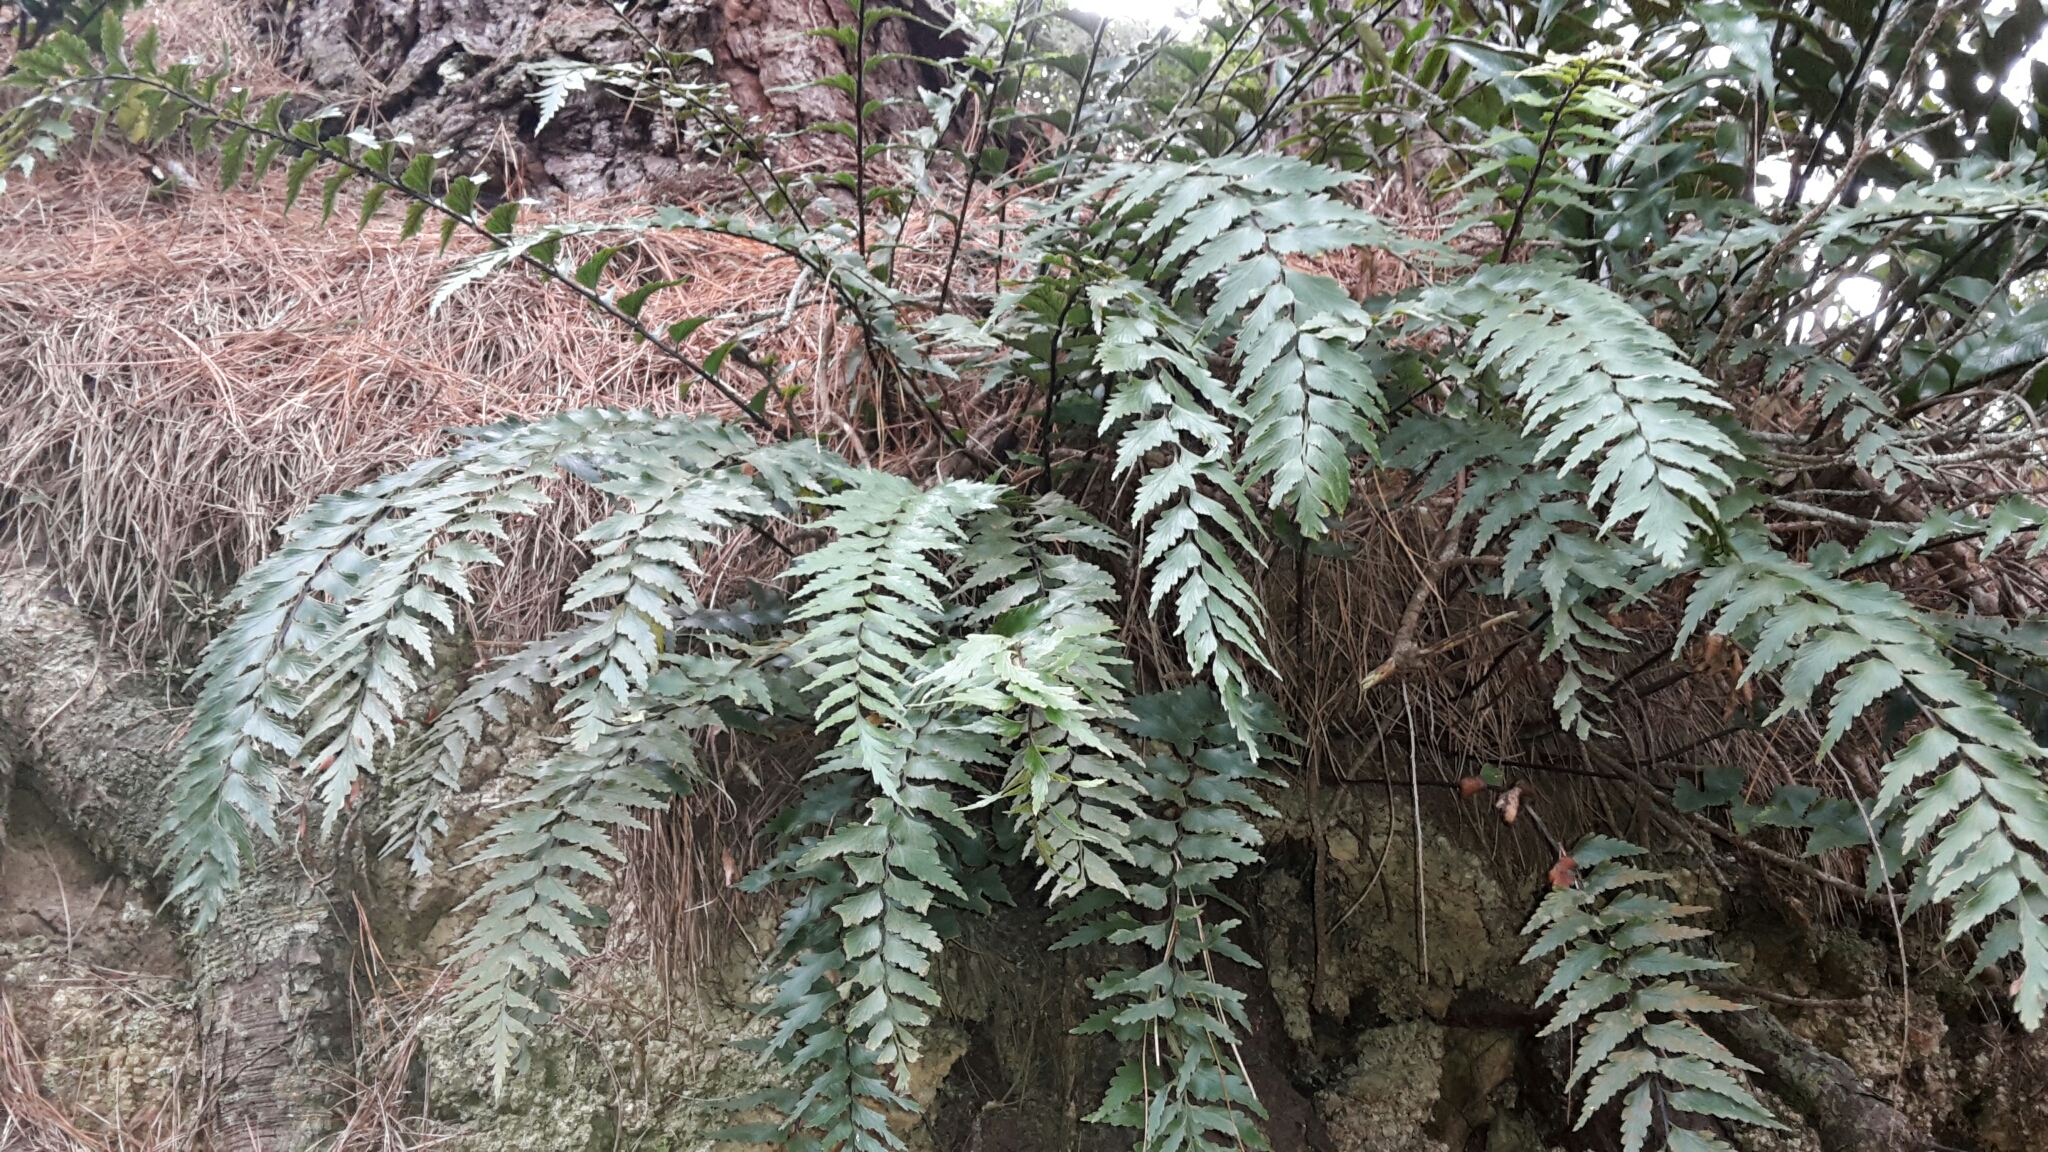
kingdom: Plantae
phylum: Tracheophyta
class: Polypodiopsida
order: Polypodiales
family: Aspleniaceae
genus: Asplenium
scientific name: Asplenium polyodon
